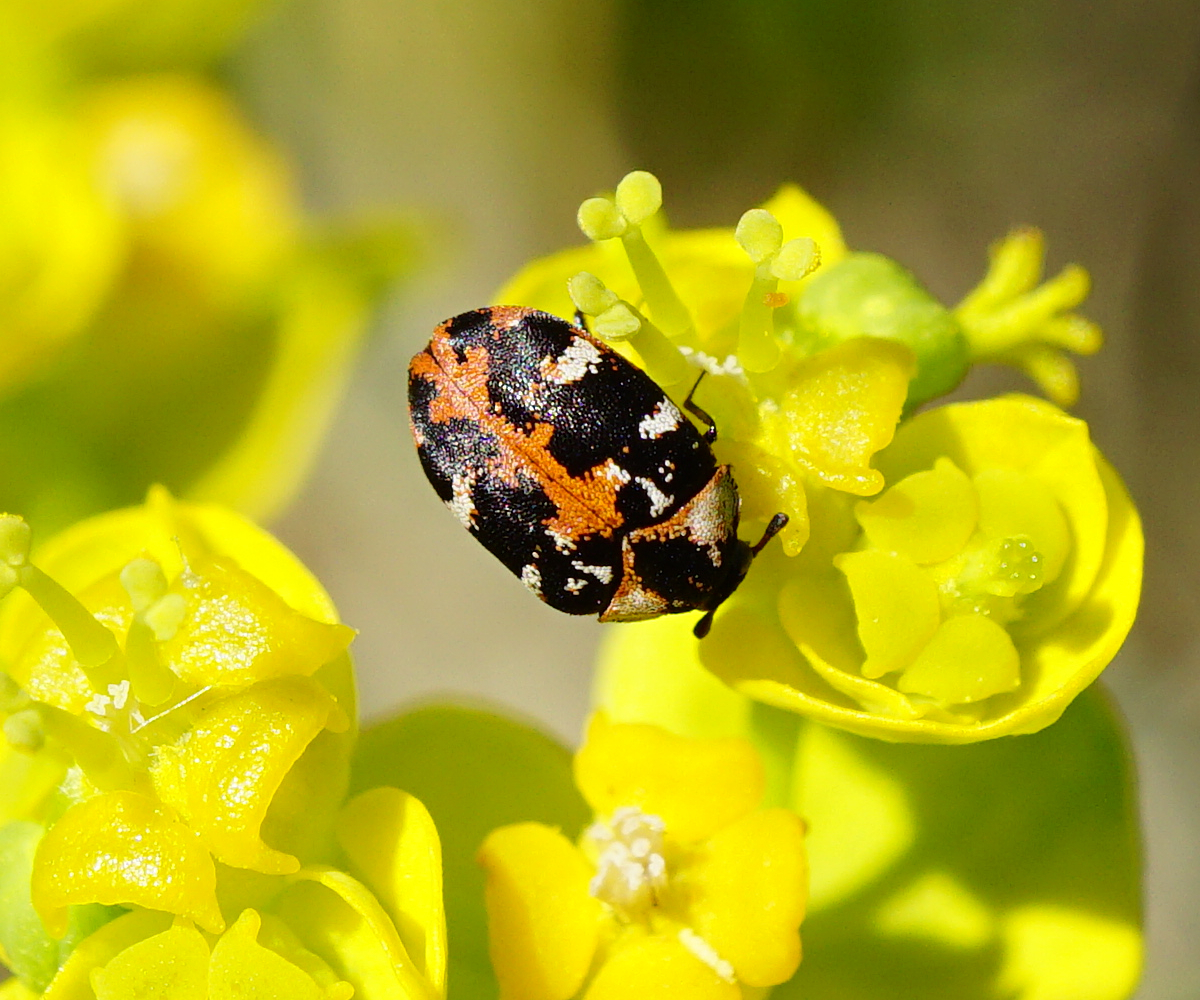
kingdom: Animalia
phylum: Arthropoda
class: Insecta
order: Coleoptera
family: Dermestidae
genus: Anthrenus
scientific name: Anthrenus scrophulariae
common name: Buffalo carpet beetle
